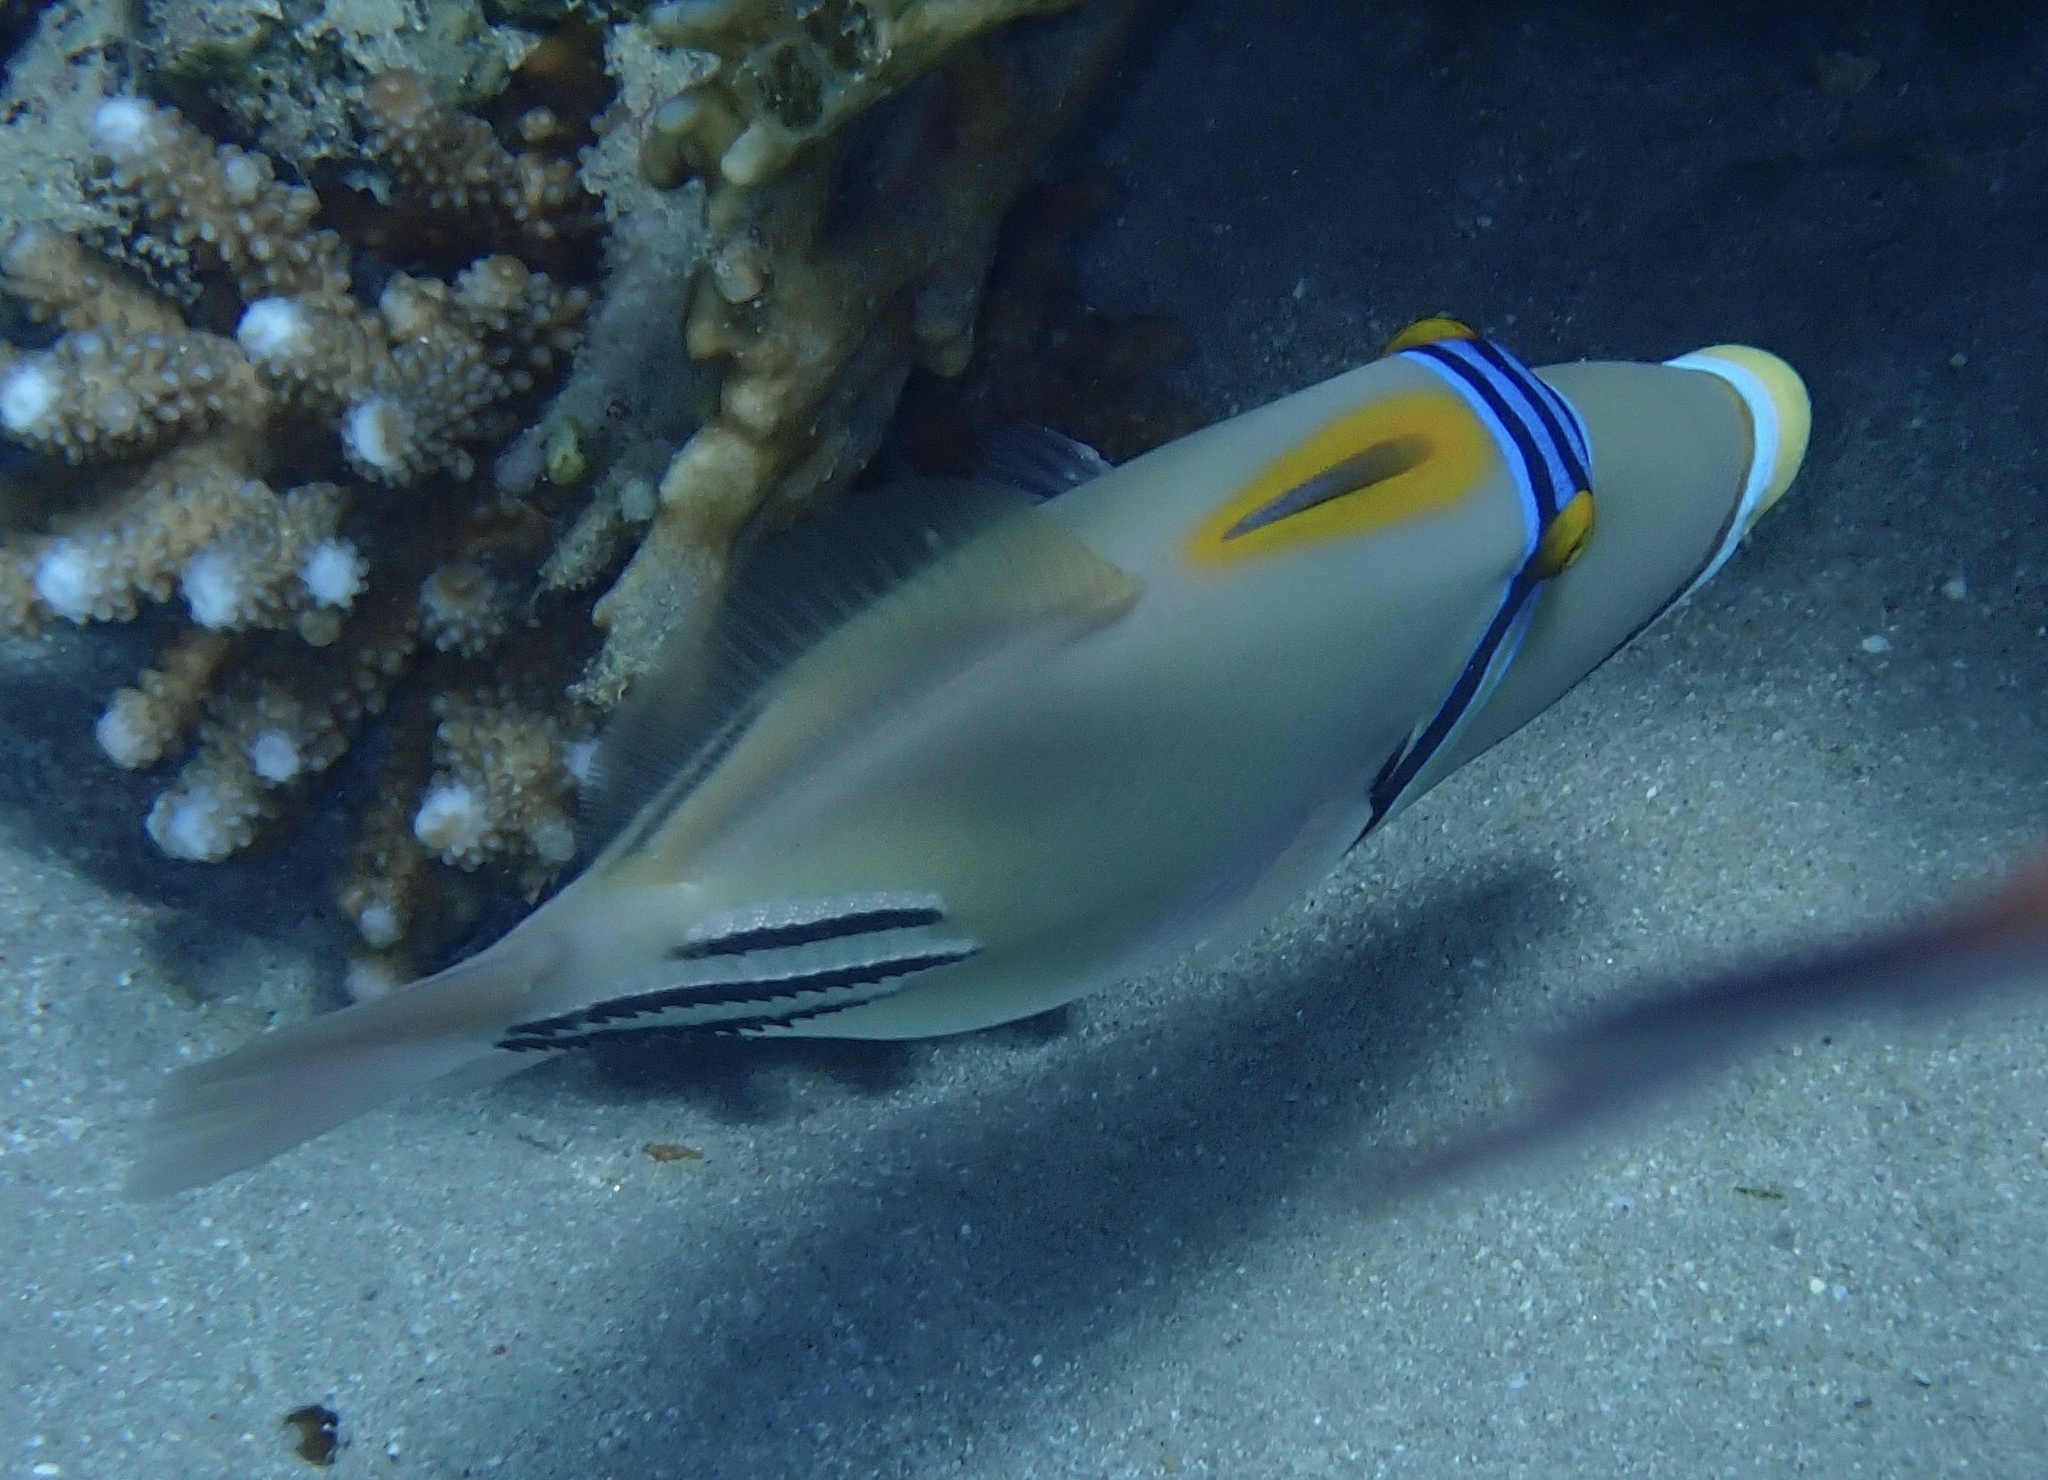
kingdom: Animalia
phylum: Chordata
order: Tetraodontiformes
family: Balistidae
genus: Rhinecanthus
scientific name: Rhinecanthus assasi
